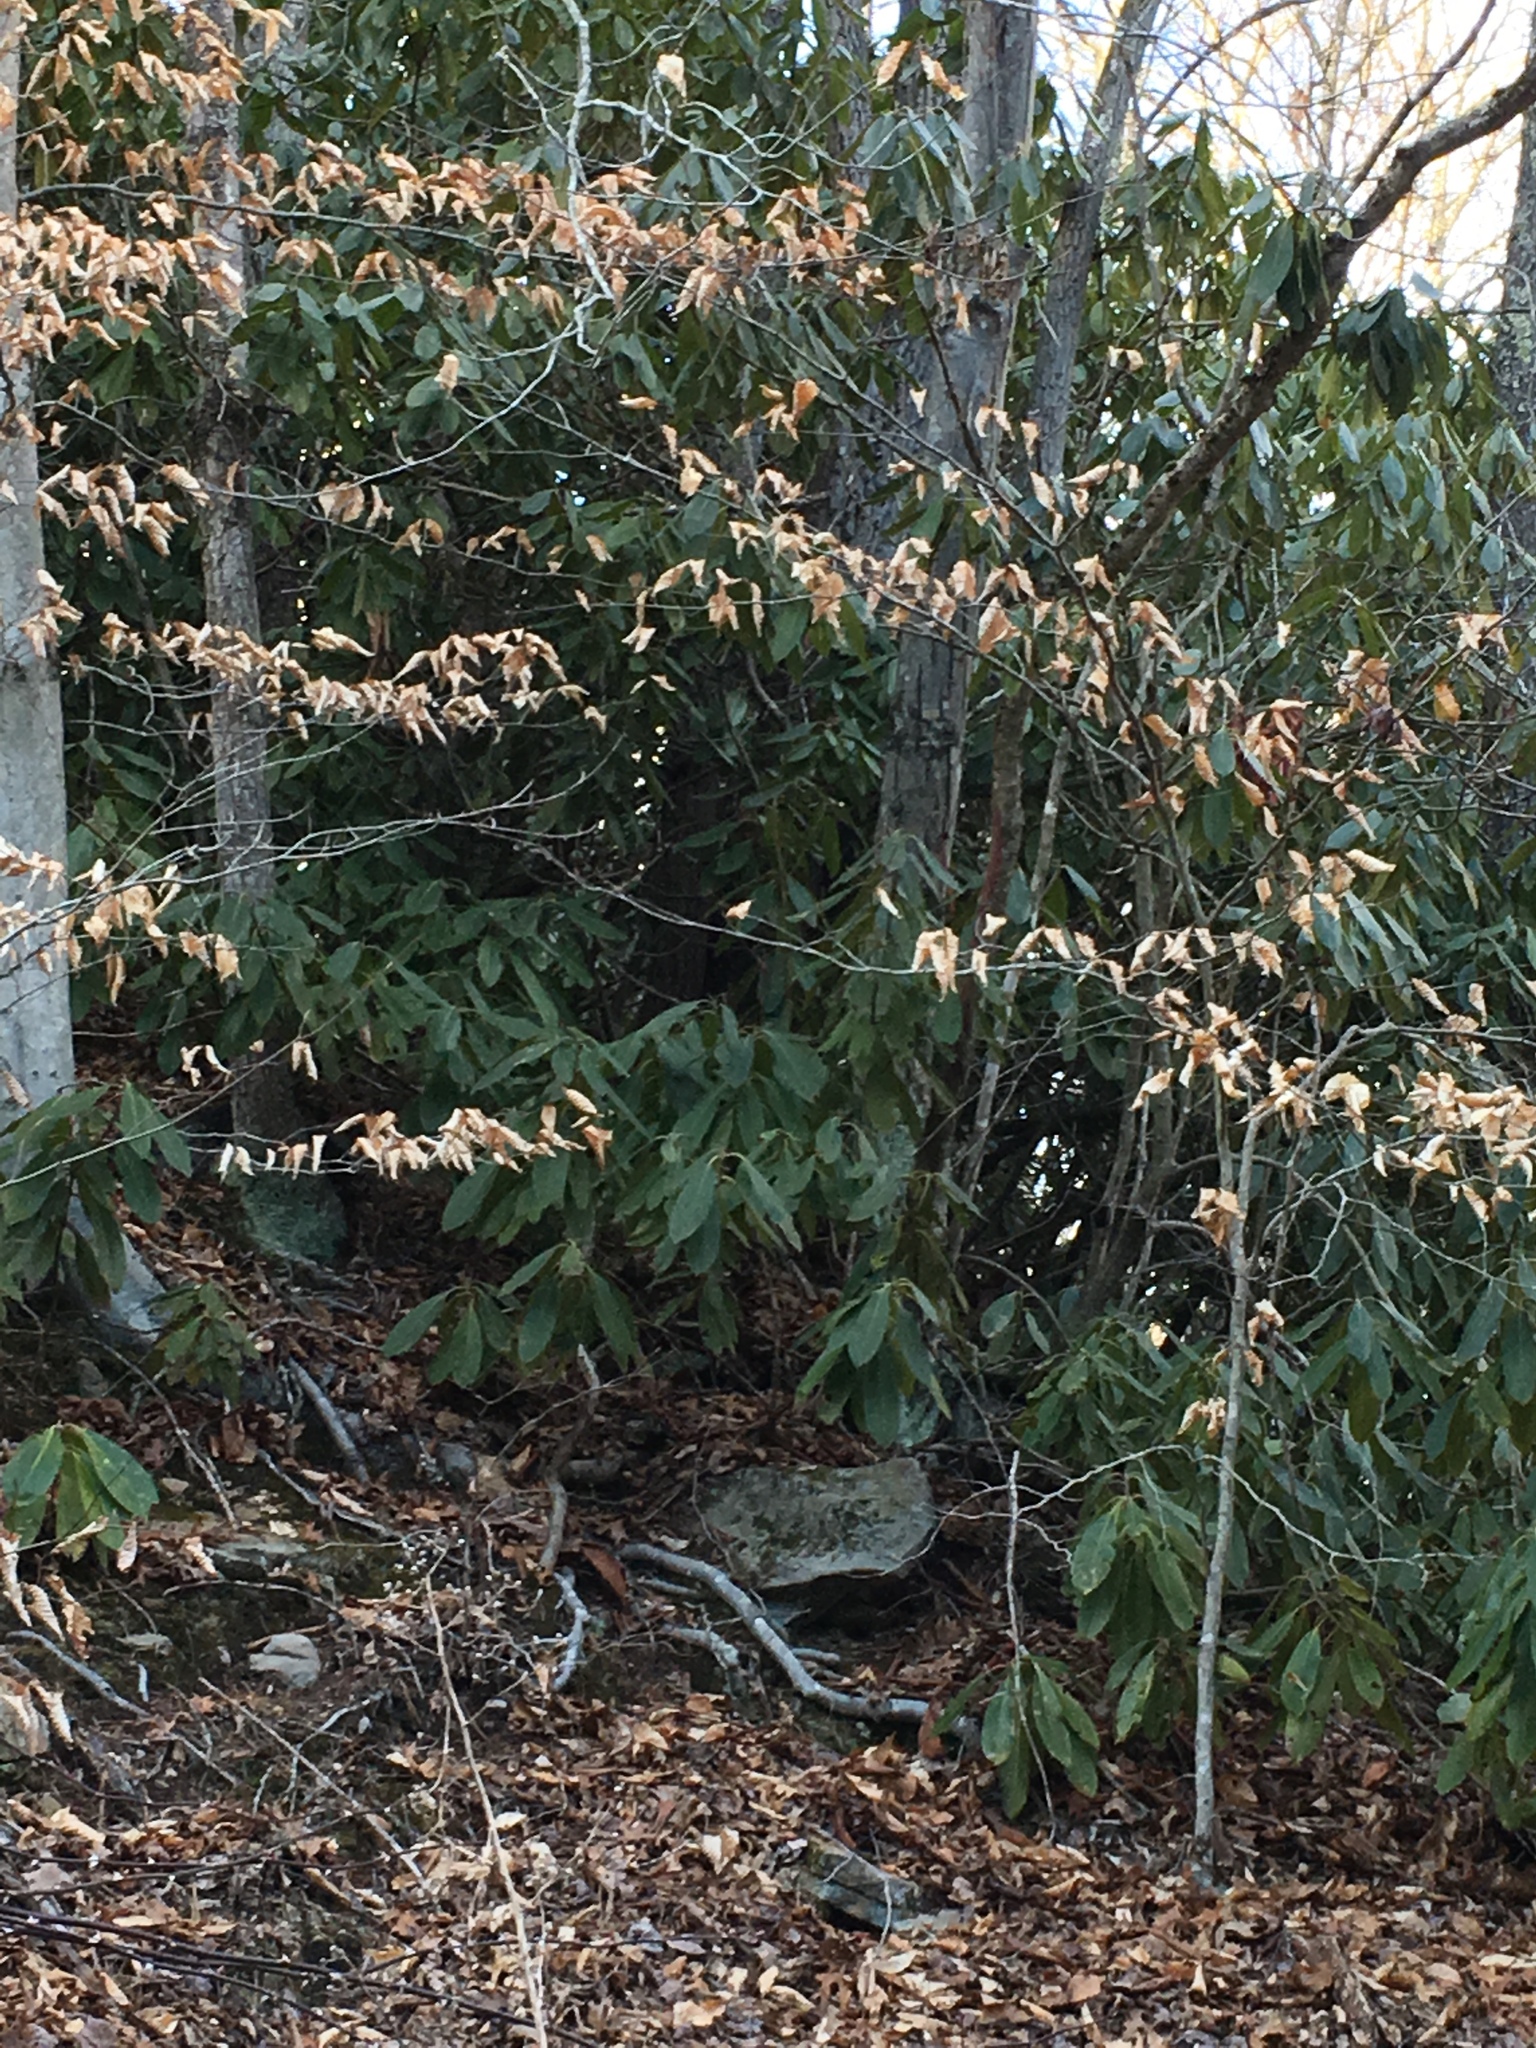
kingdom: Plantae
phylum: Tracheophyta
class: Magnoliopsida
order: Ericales
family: Ericaceae
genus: Rhododendron
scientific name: Rhododendron maximum
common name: Great rhododendron
